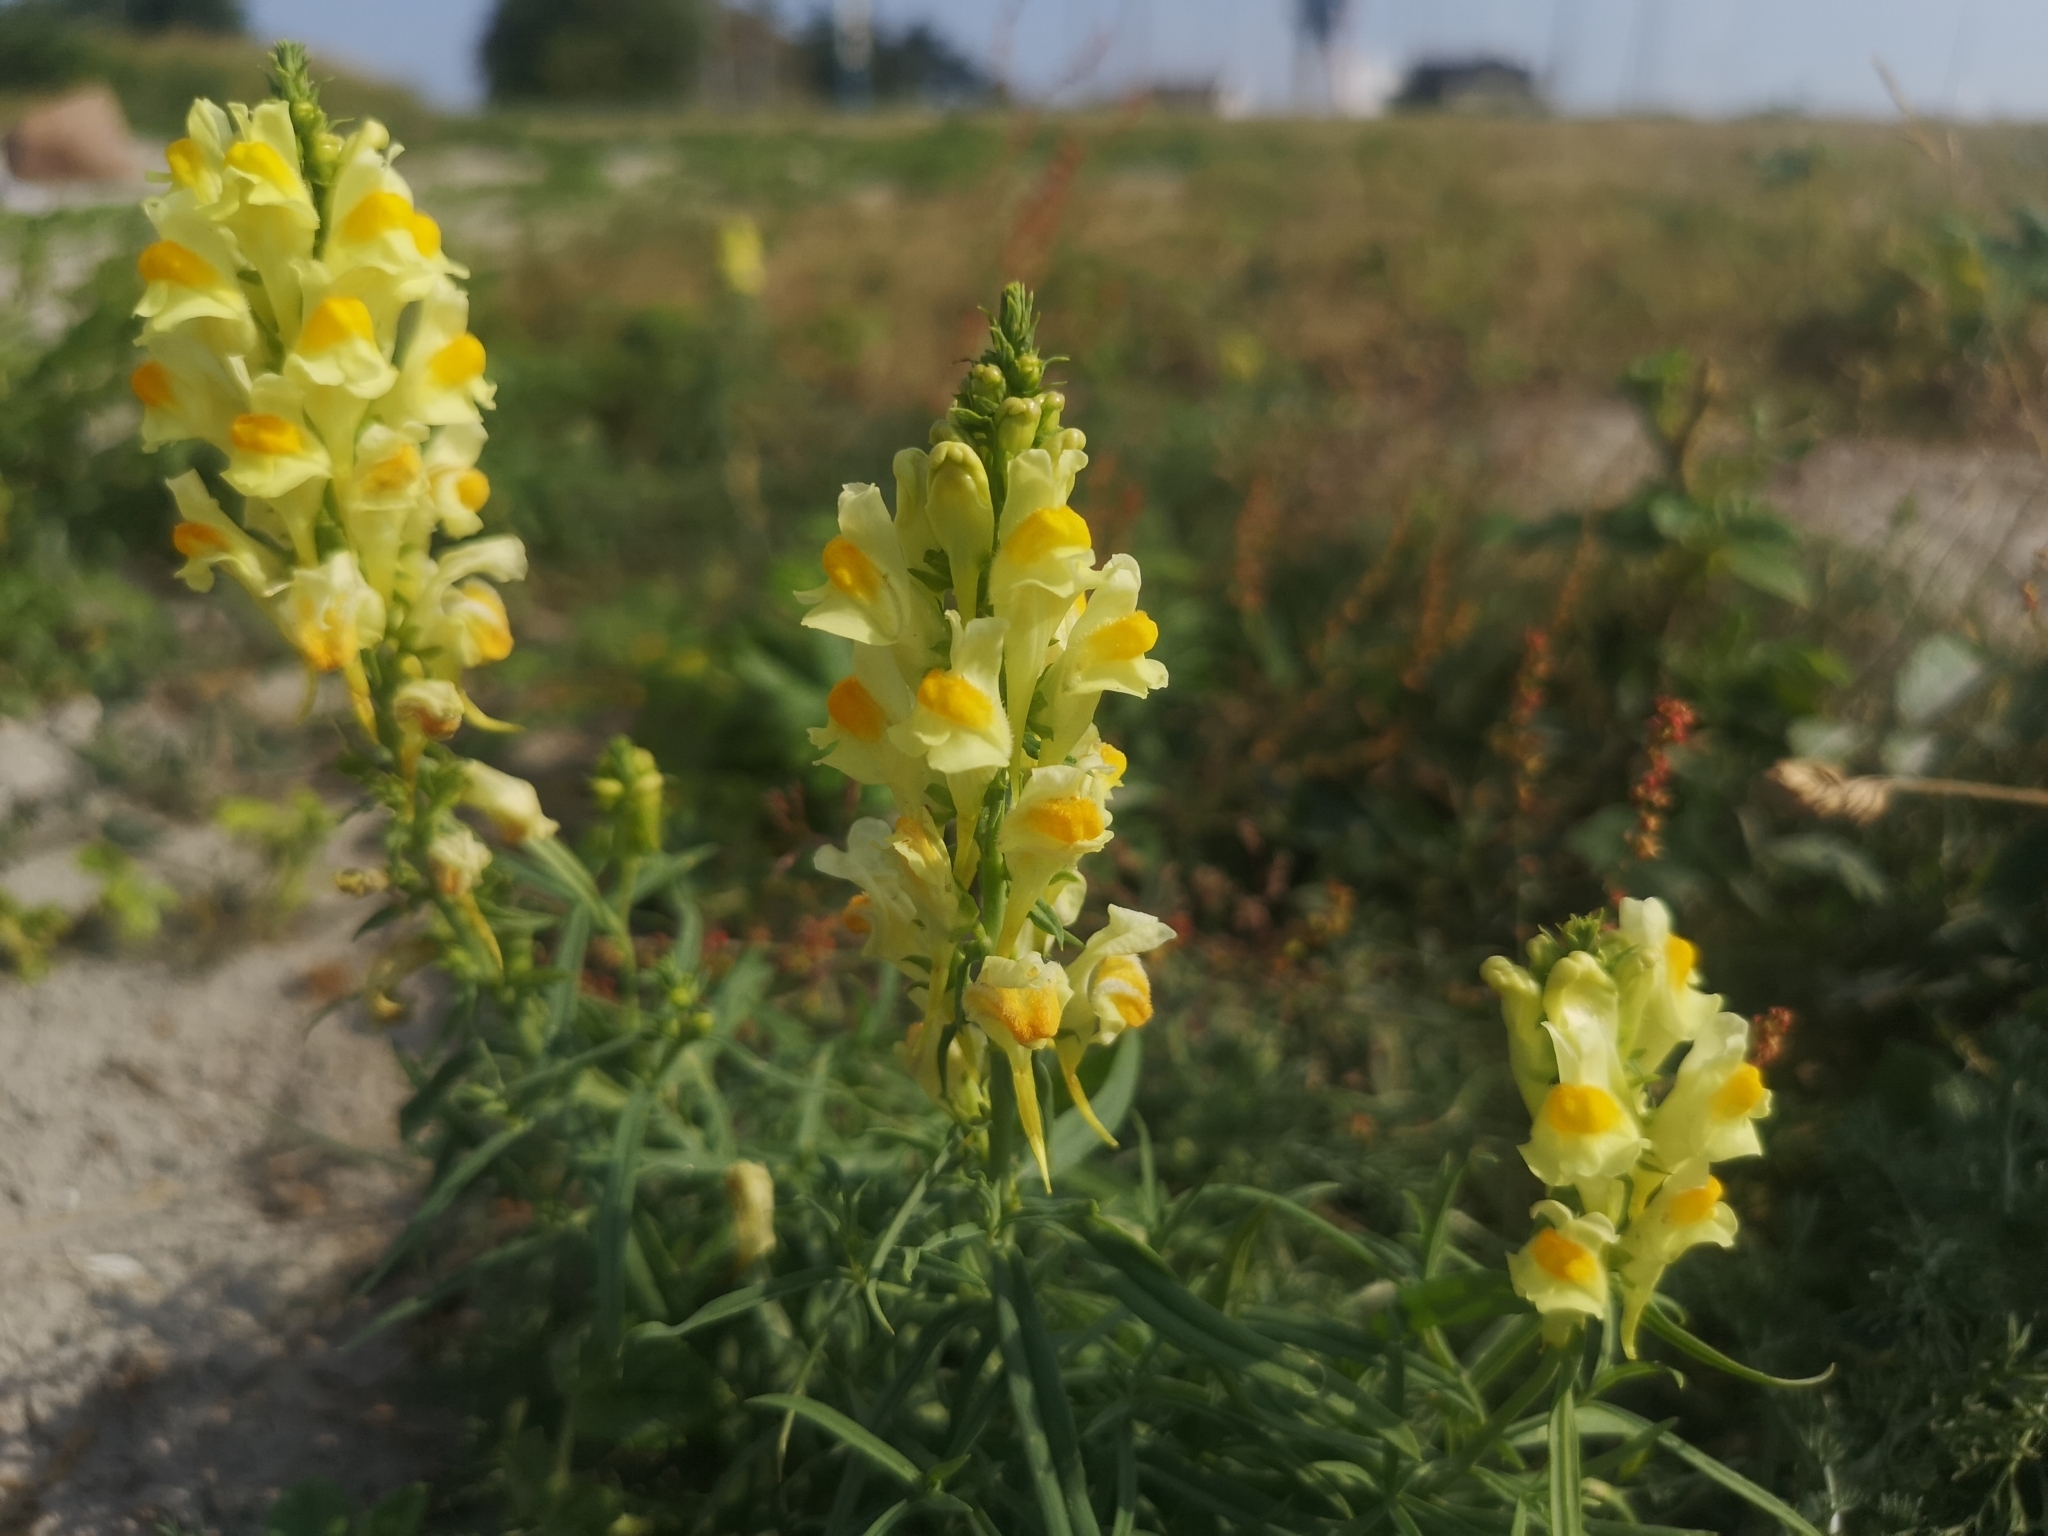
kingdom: Plantae
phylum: Tracheophyta
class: Magnoliopsida
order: Lamiales
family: Plantaginaceae
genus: Linaria
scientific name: Linaria vulgaris
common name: Butter and eggs
